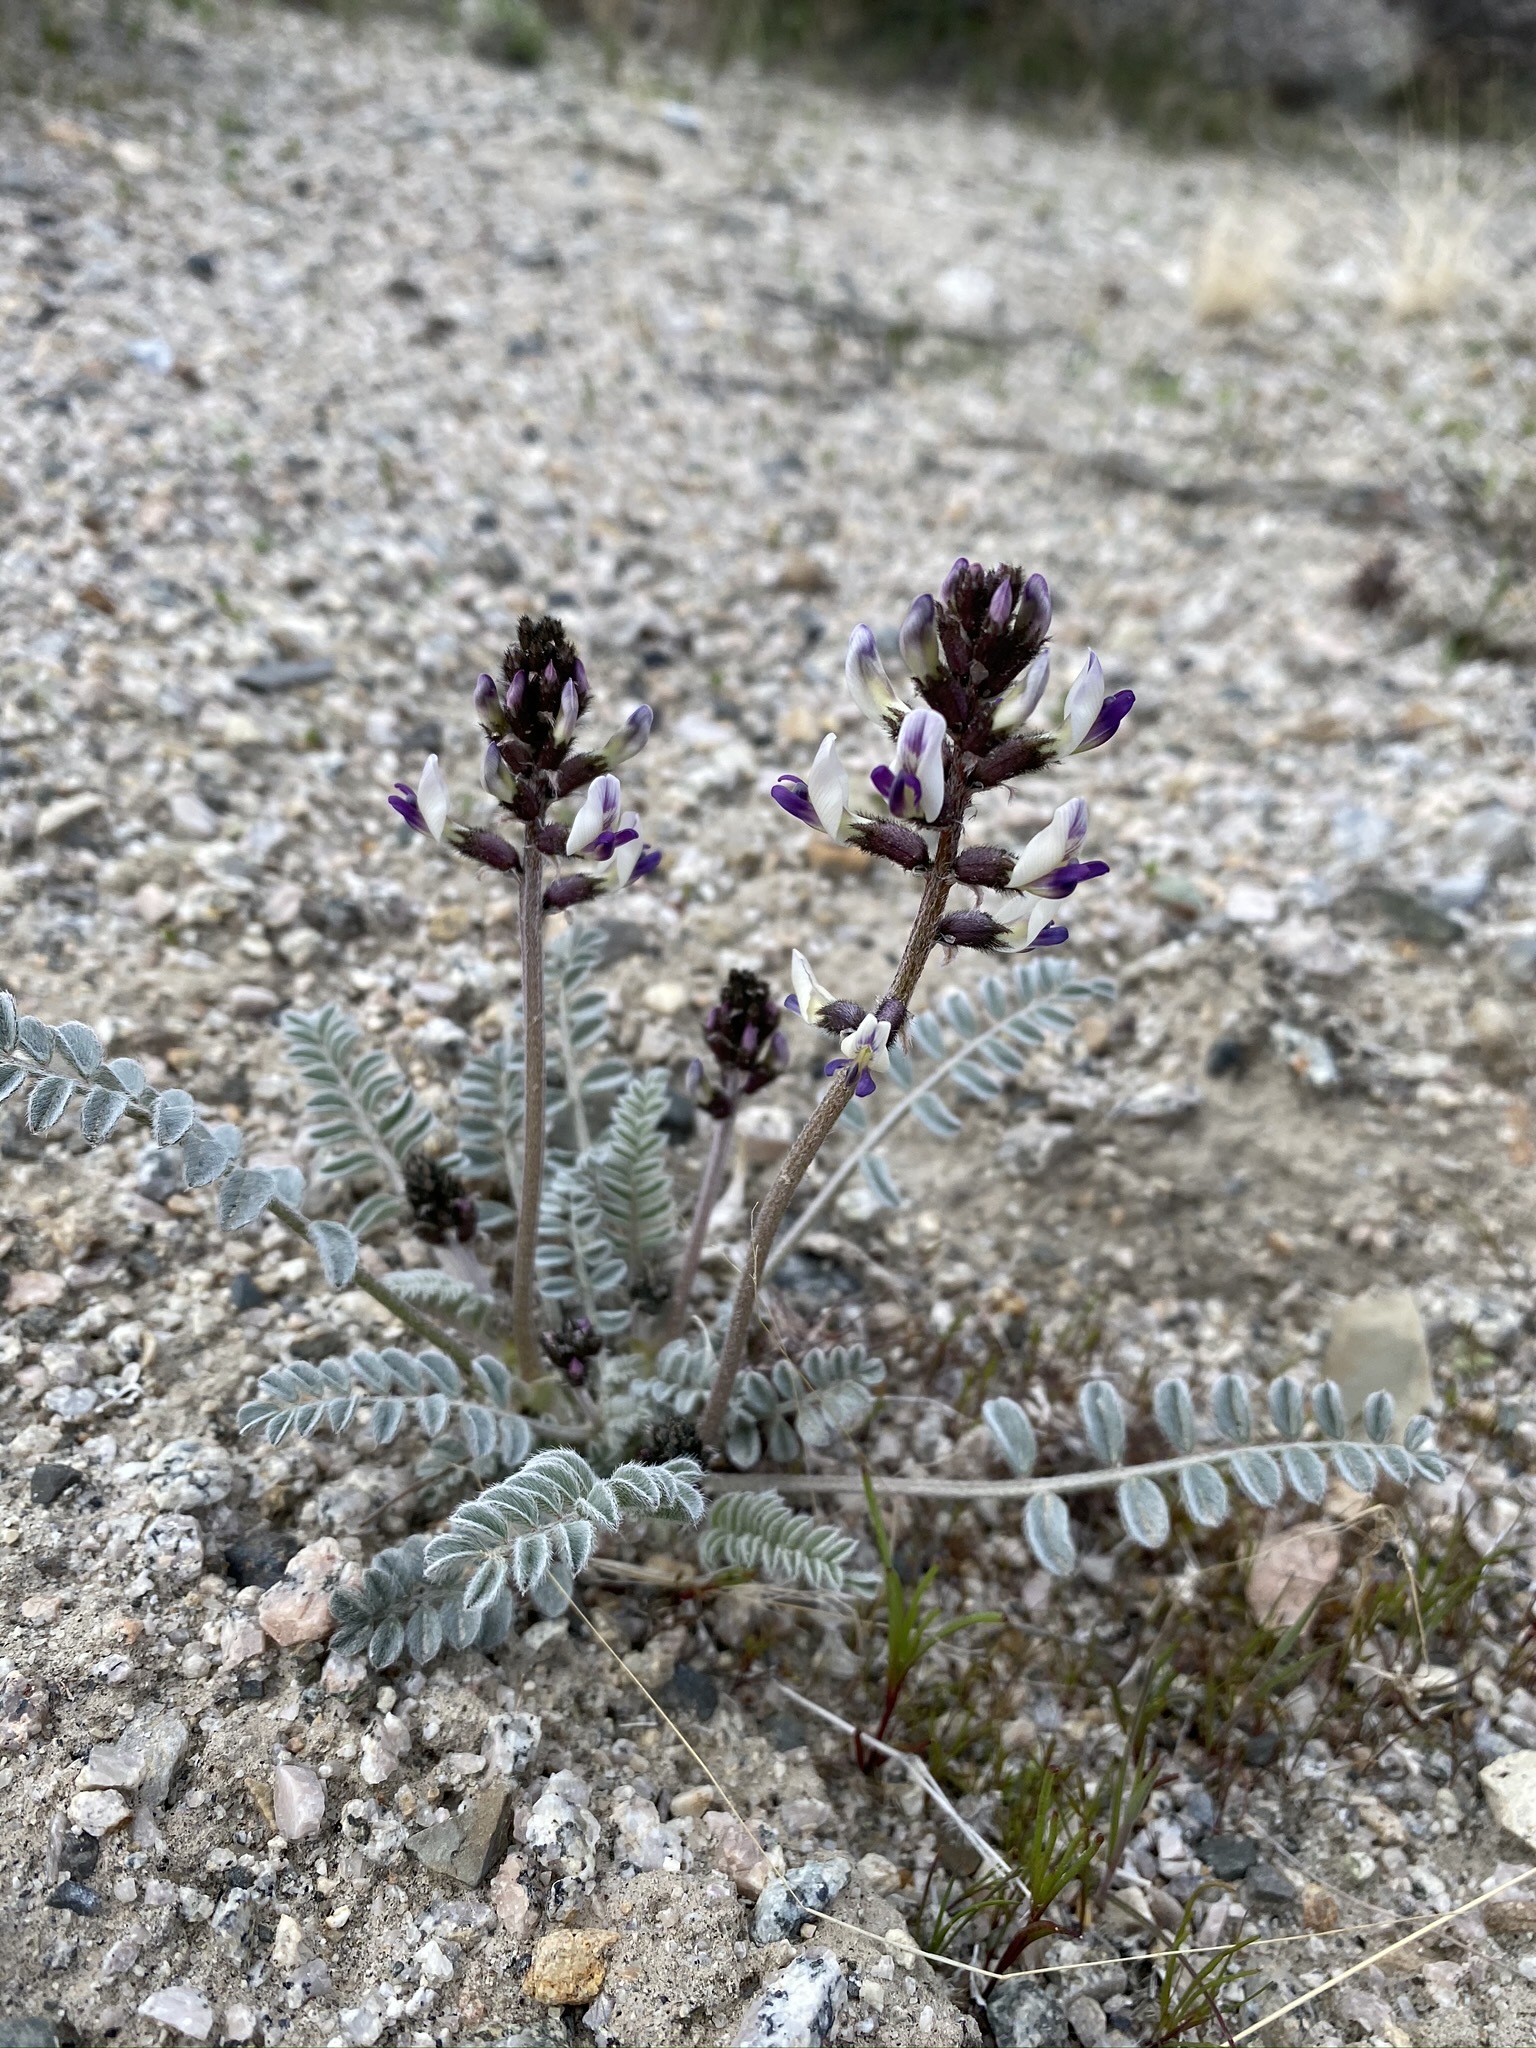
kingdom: Plantae
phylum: Tracheophyta
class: Magnoliopsida
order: Fabales
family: Fabaceae
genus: Astragalus
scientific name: Astragalus layneae
